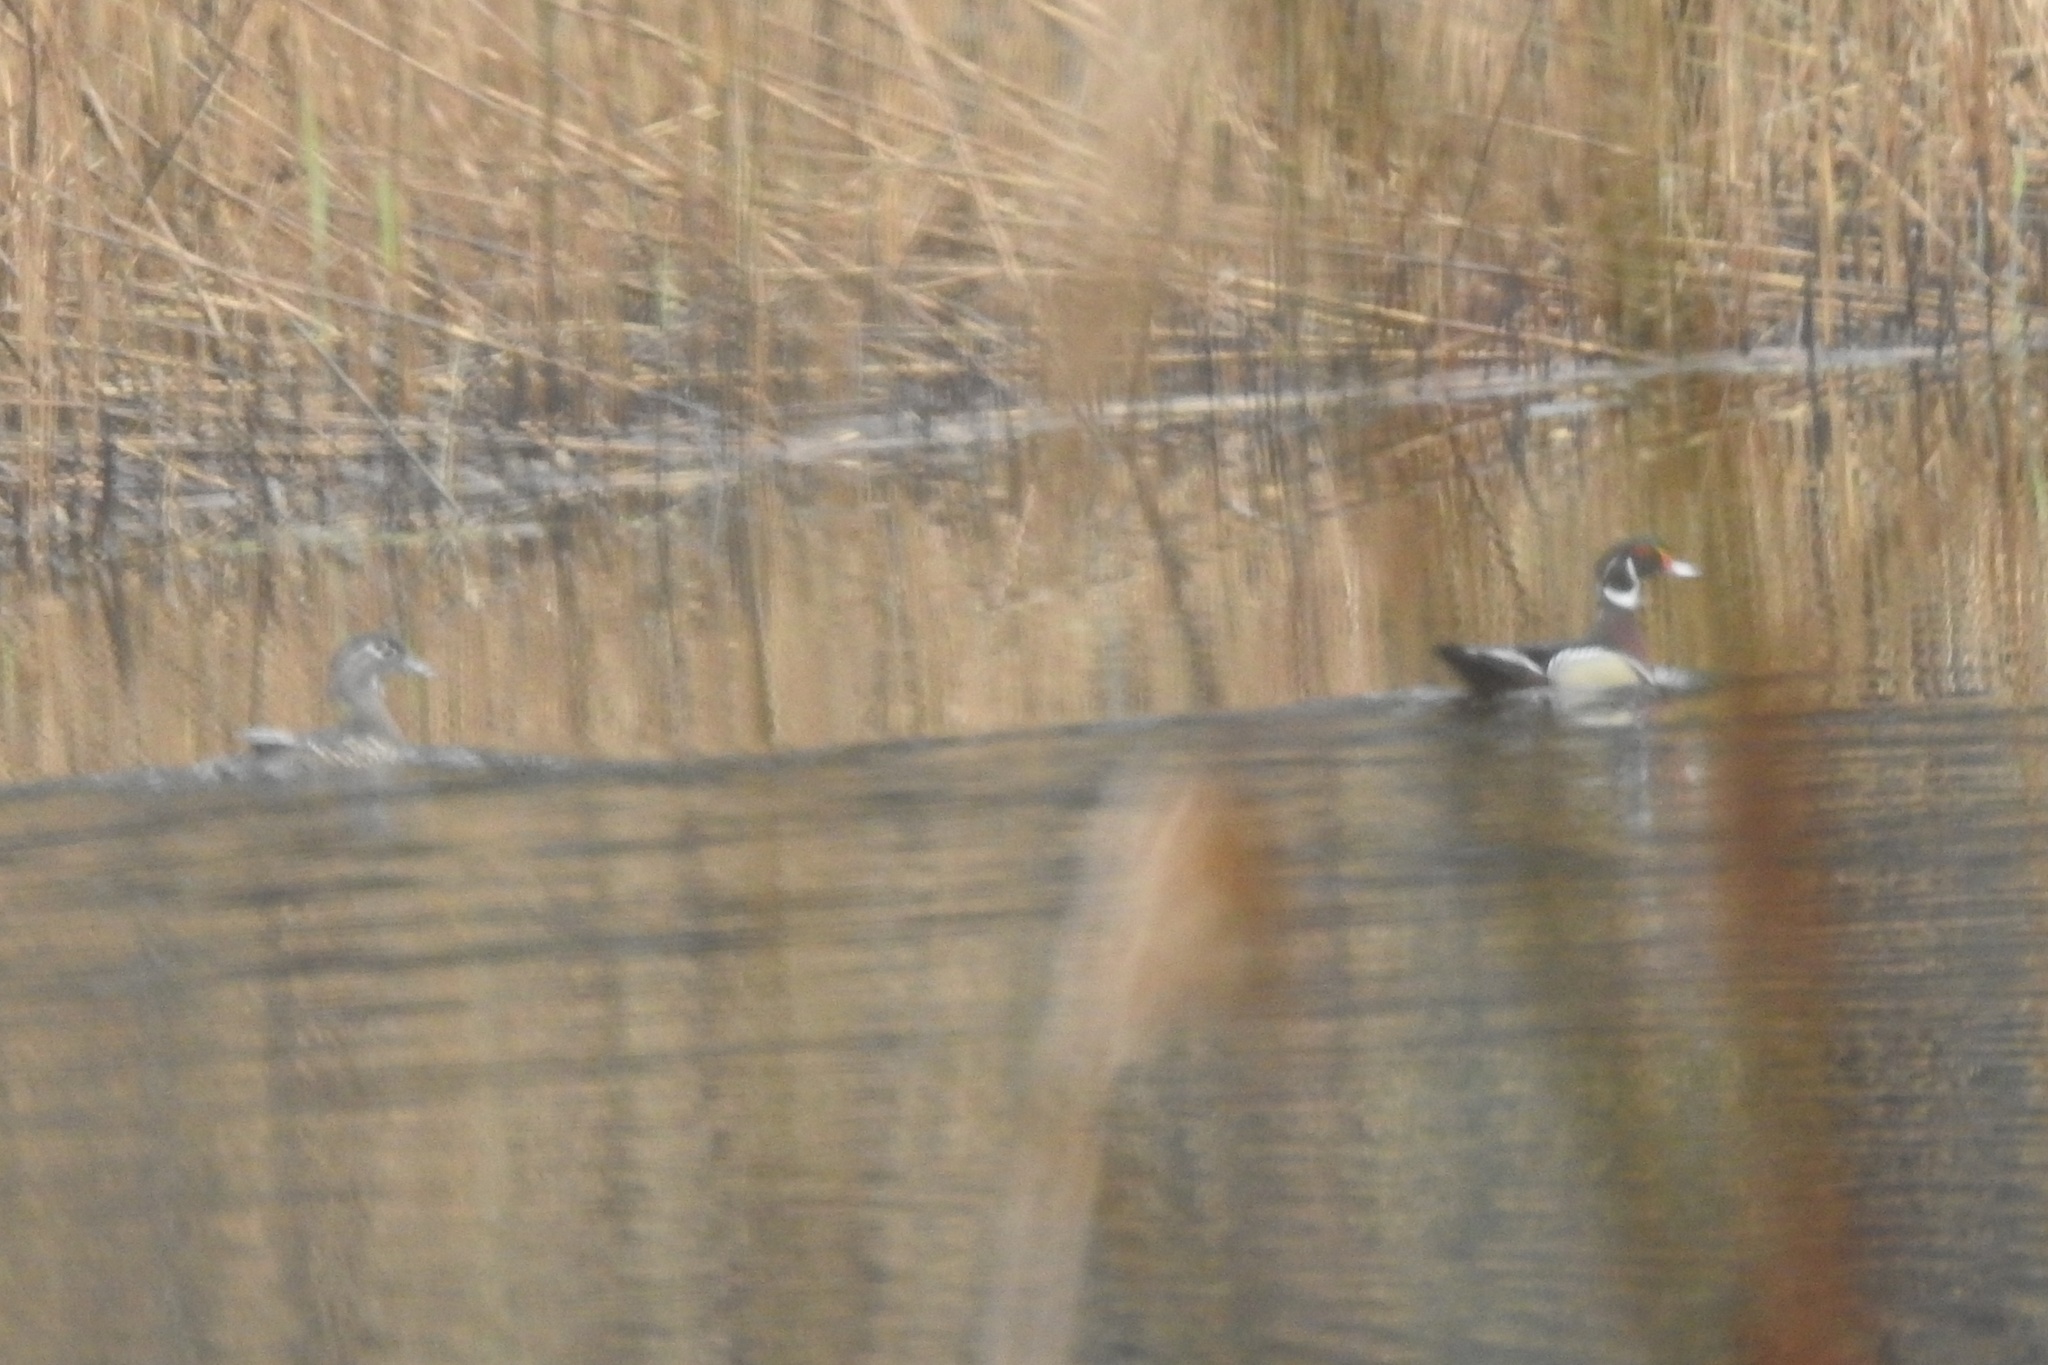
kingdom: Animalia
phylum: Chordata
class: Aves
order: Anseriformes
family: Anatidae
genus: Aix
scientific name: Aix sponsa
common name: Wood duck
